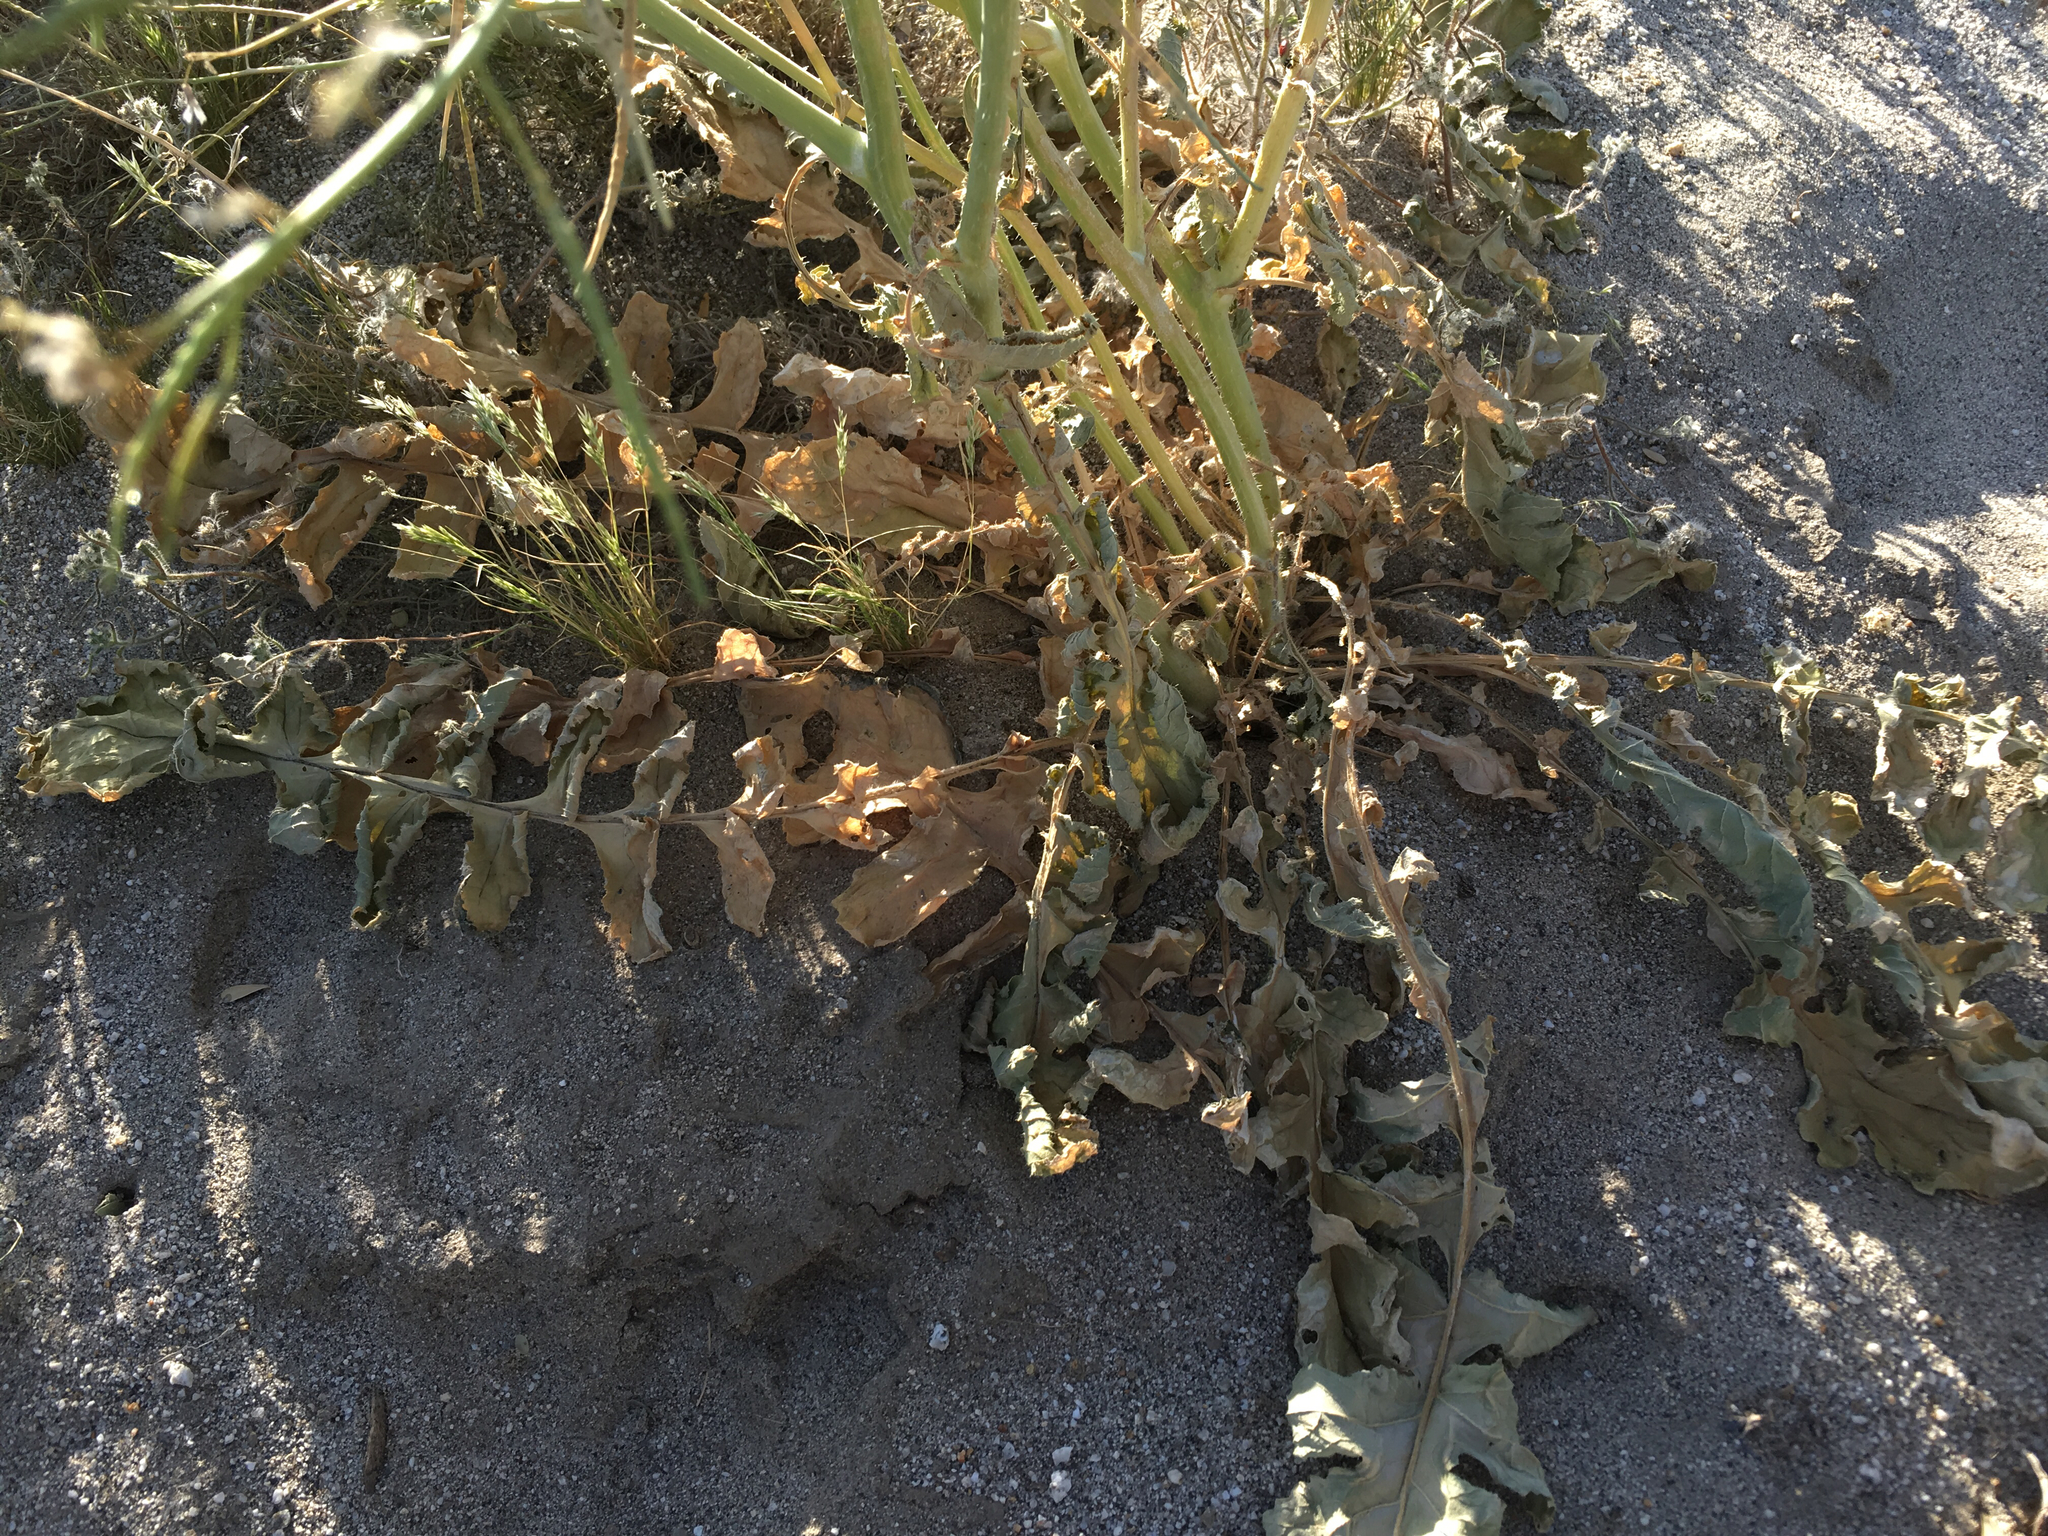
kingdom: Plantae
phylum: Tracheophyta
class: Magnoliopsida
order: Brassicales
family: Brassicaceae
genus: Brassica
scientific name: Brassica tournefortii
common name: Pale cabbage
